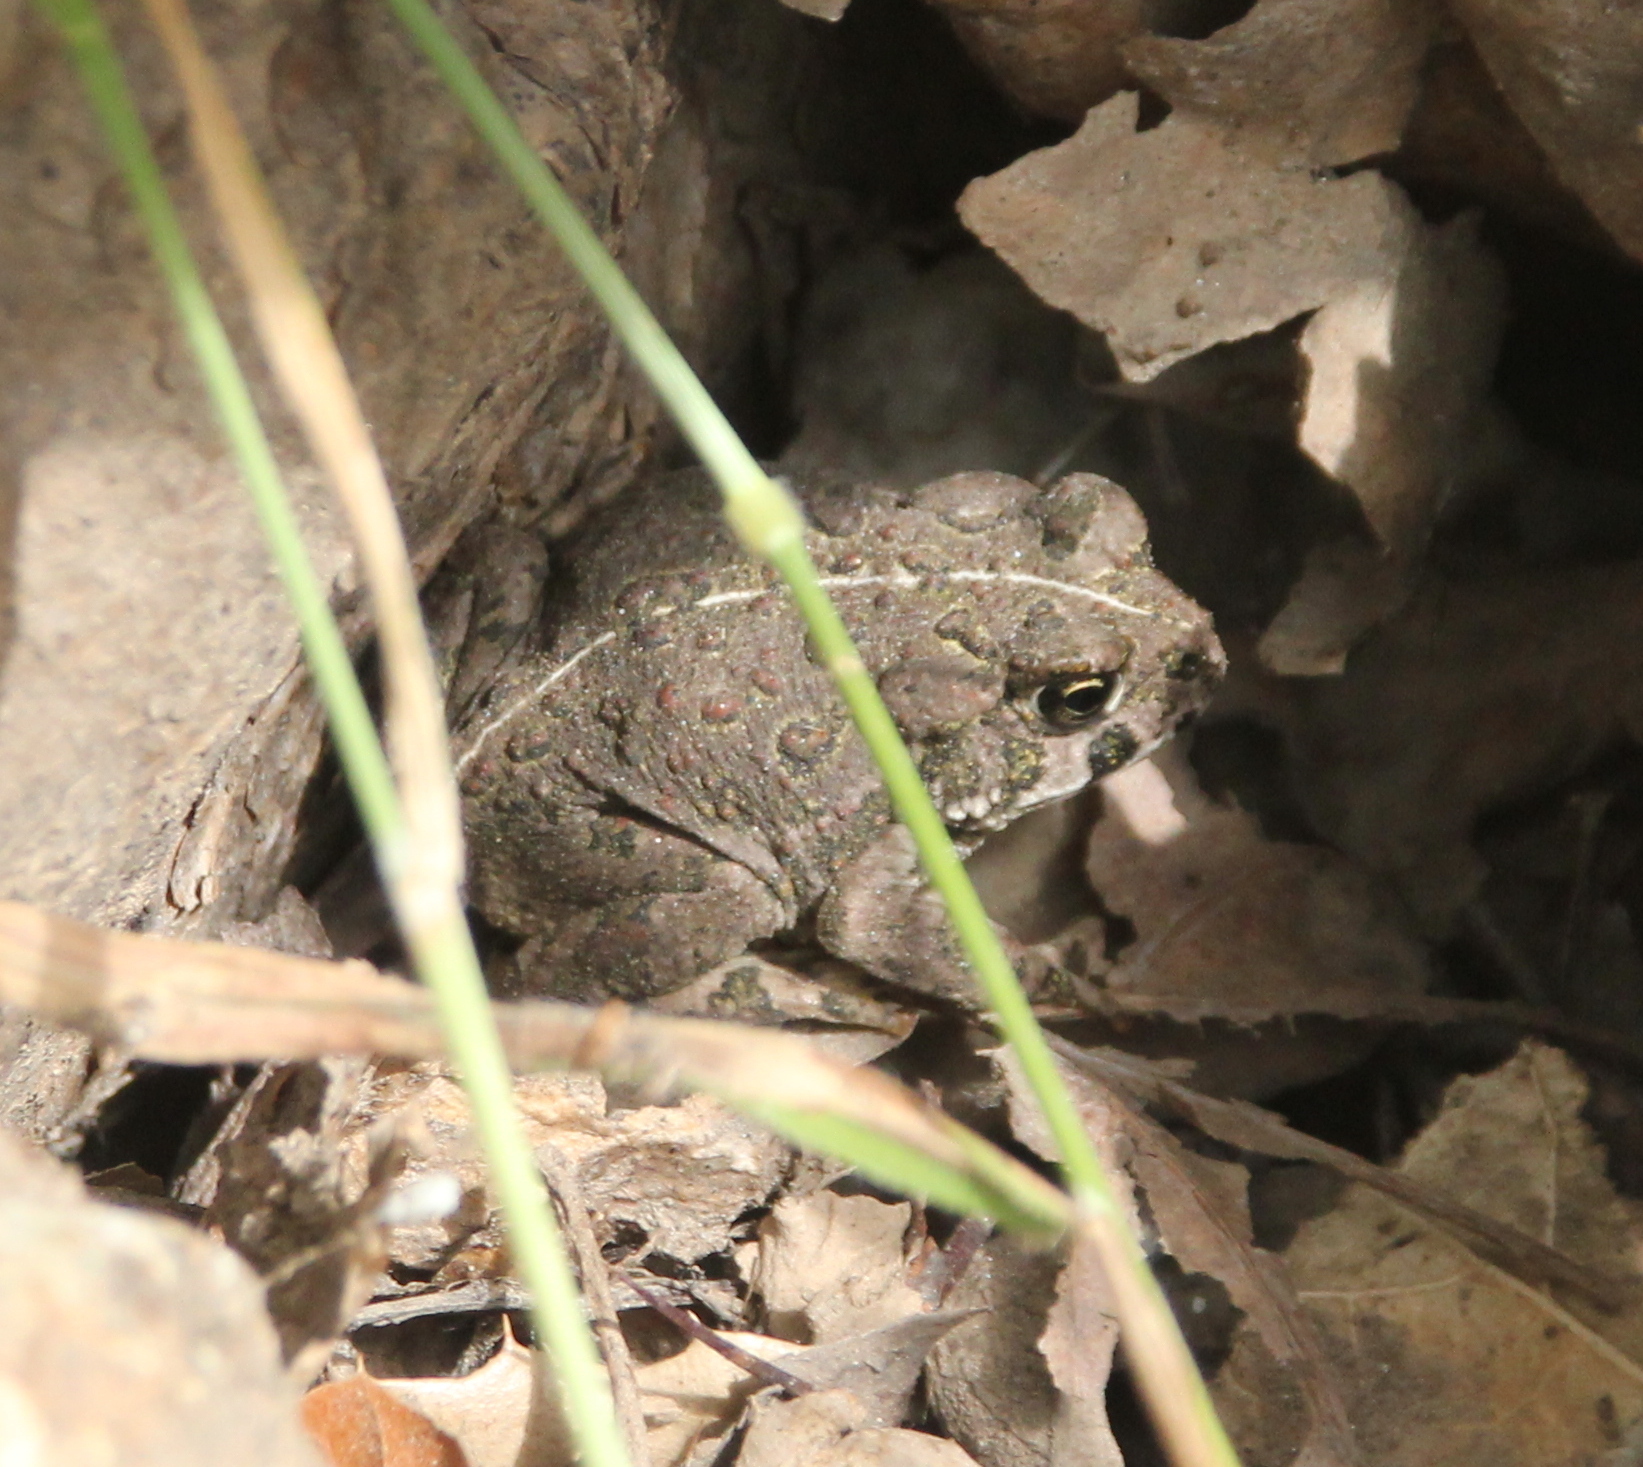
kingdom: Animalia
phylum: Chordata
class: Amphibia
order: Anura
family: Bufonidae
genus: Anaxyrus
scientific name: Anaxyrus boreas
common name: Western toad
